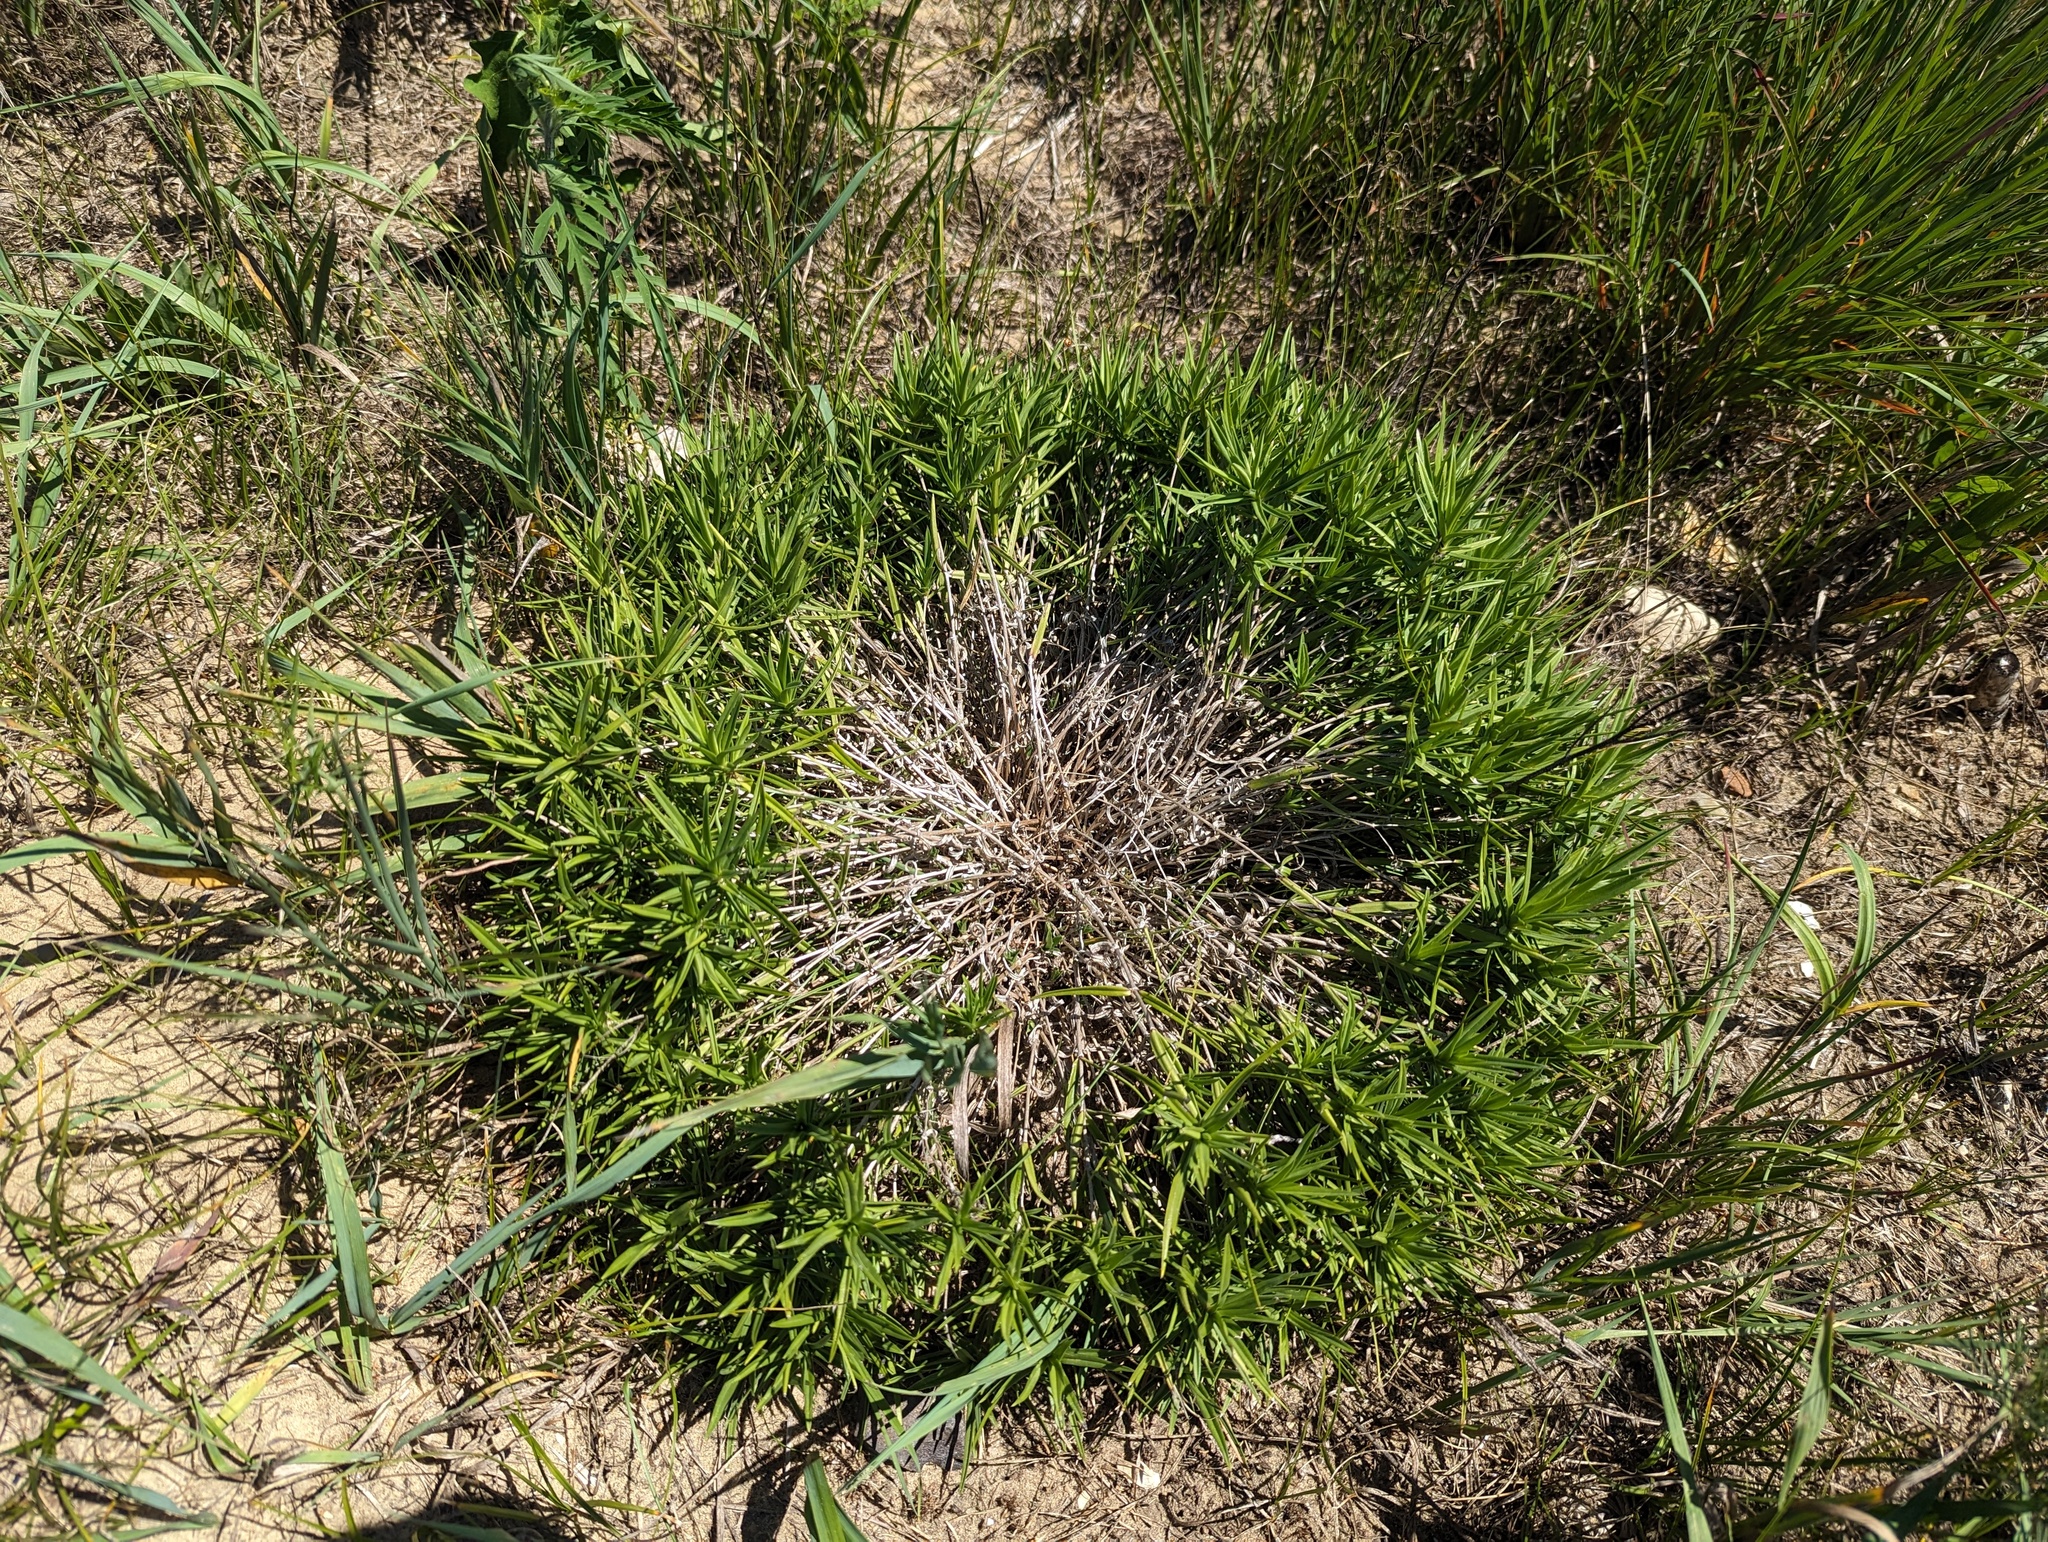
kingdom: Plantae
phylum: Tracheophyta
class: Magnoliopsida
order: Ericales
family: Polemoniaceae
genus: Phlox
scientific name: Phlox bifida
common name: Sand phlox
